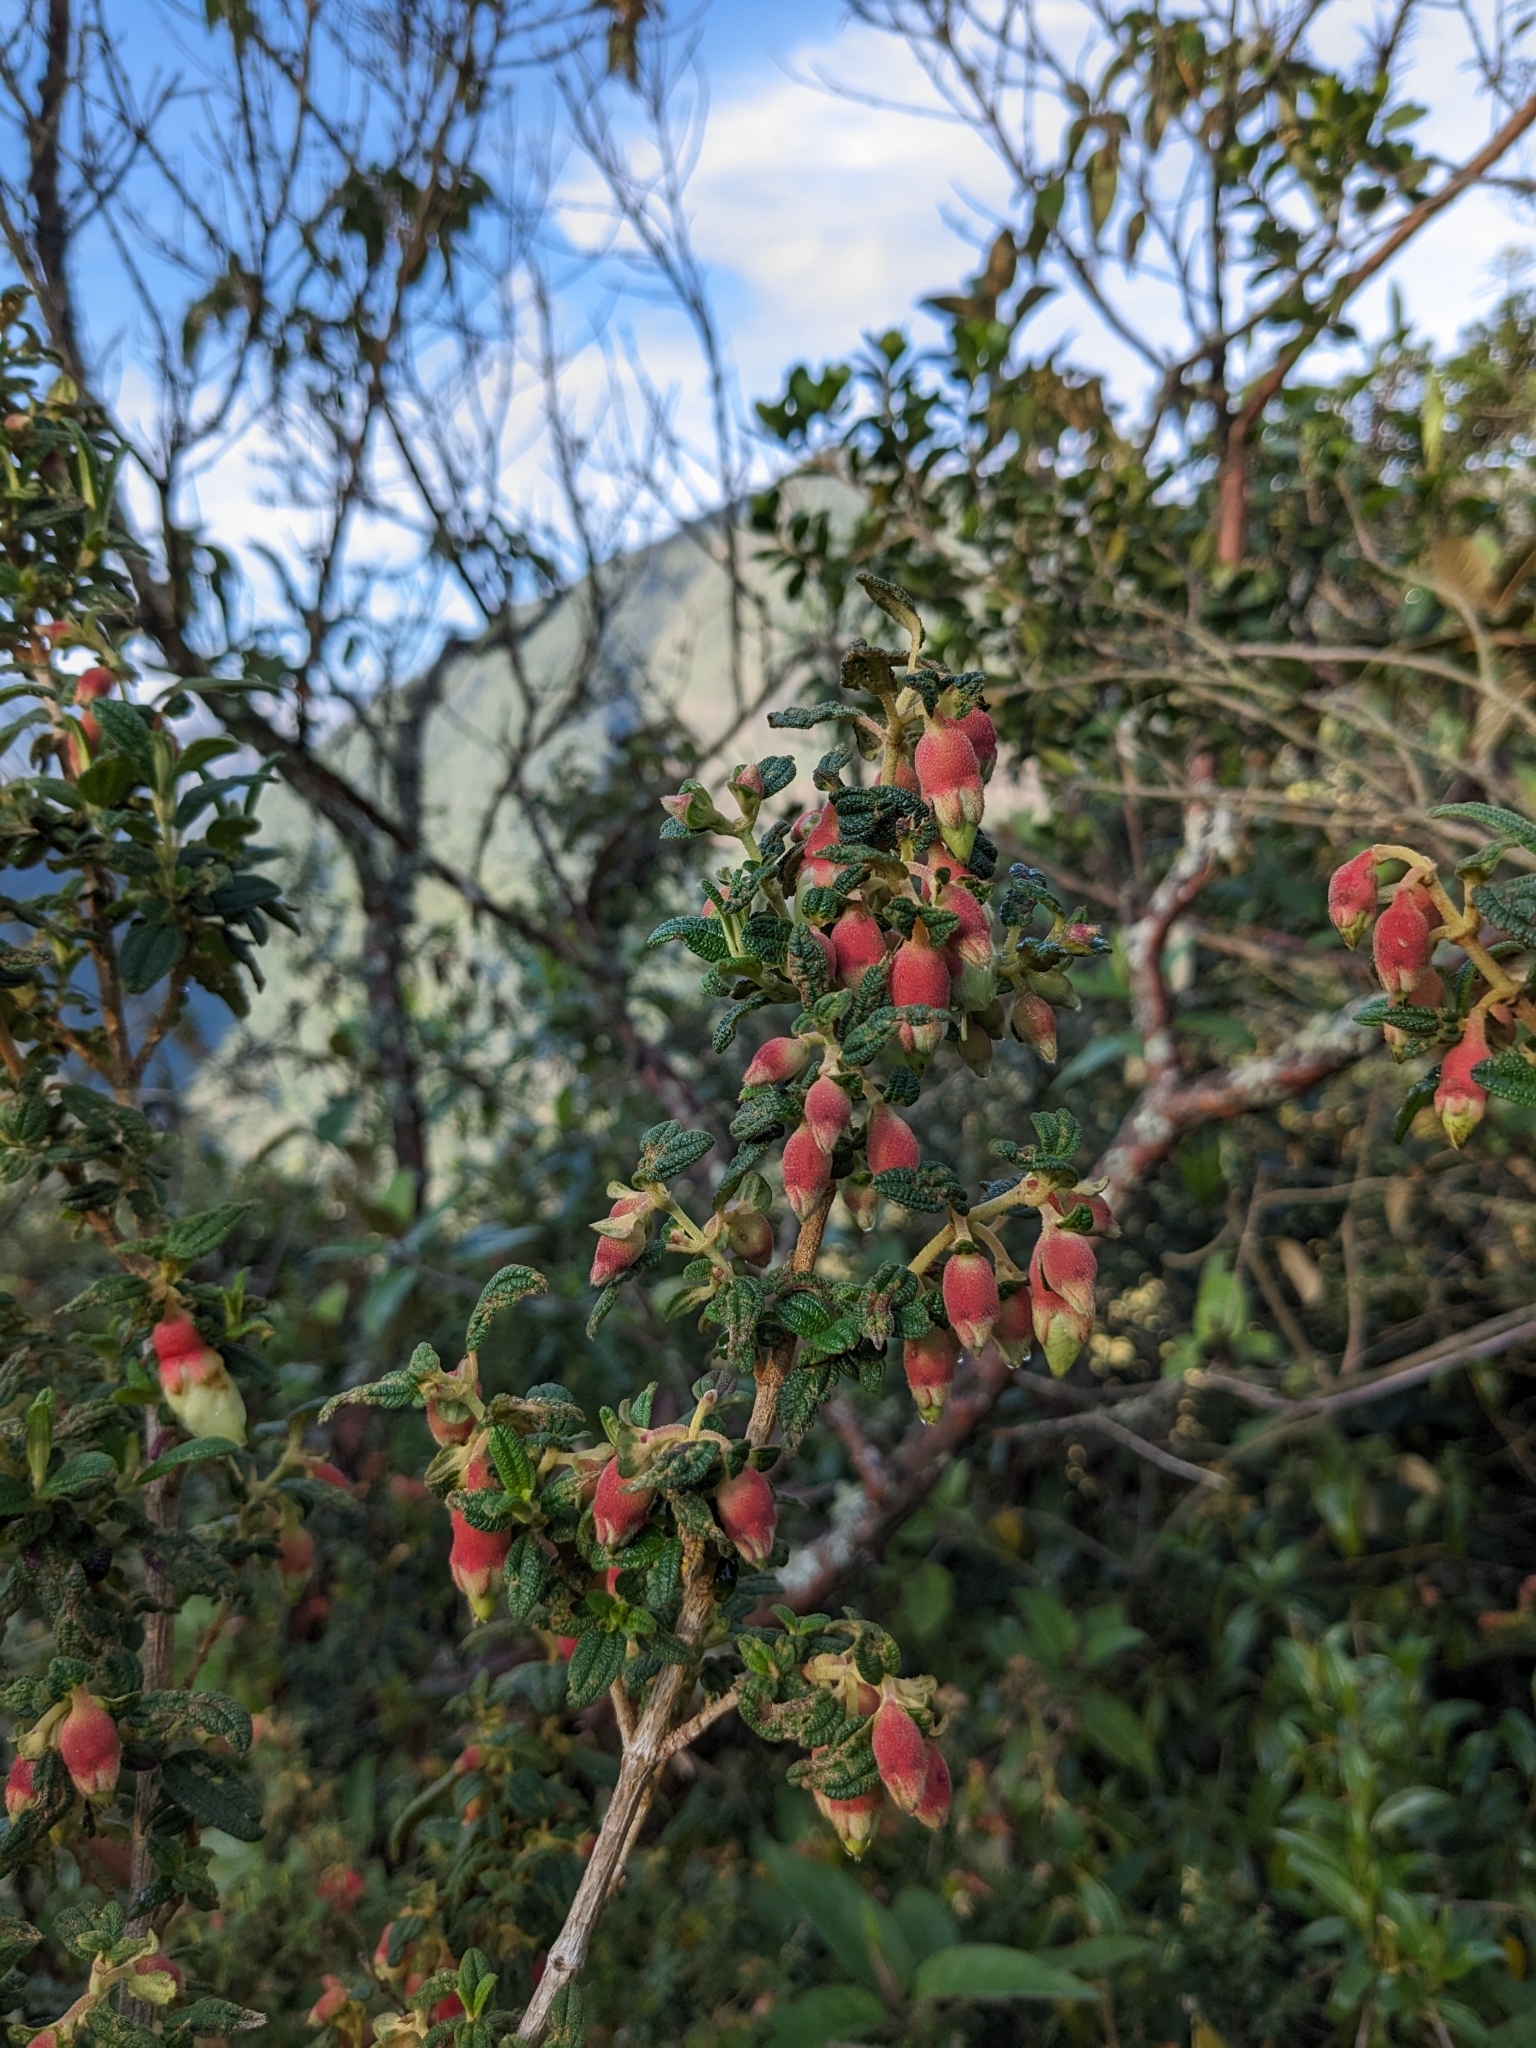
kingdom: Plantae
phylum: Tracheophyta
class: Magnoliopsida
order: Myrtales
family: Melastomataceae
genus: Brachyotum
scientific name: Brachyotum ledifolium
